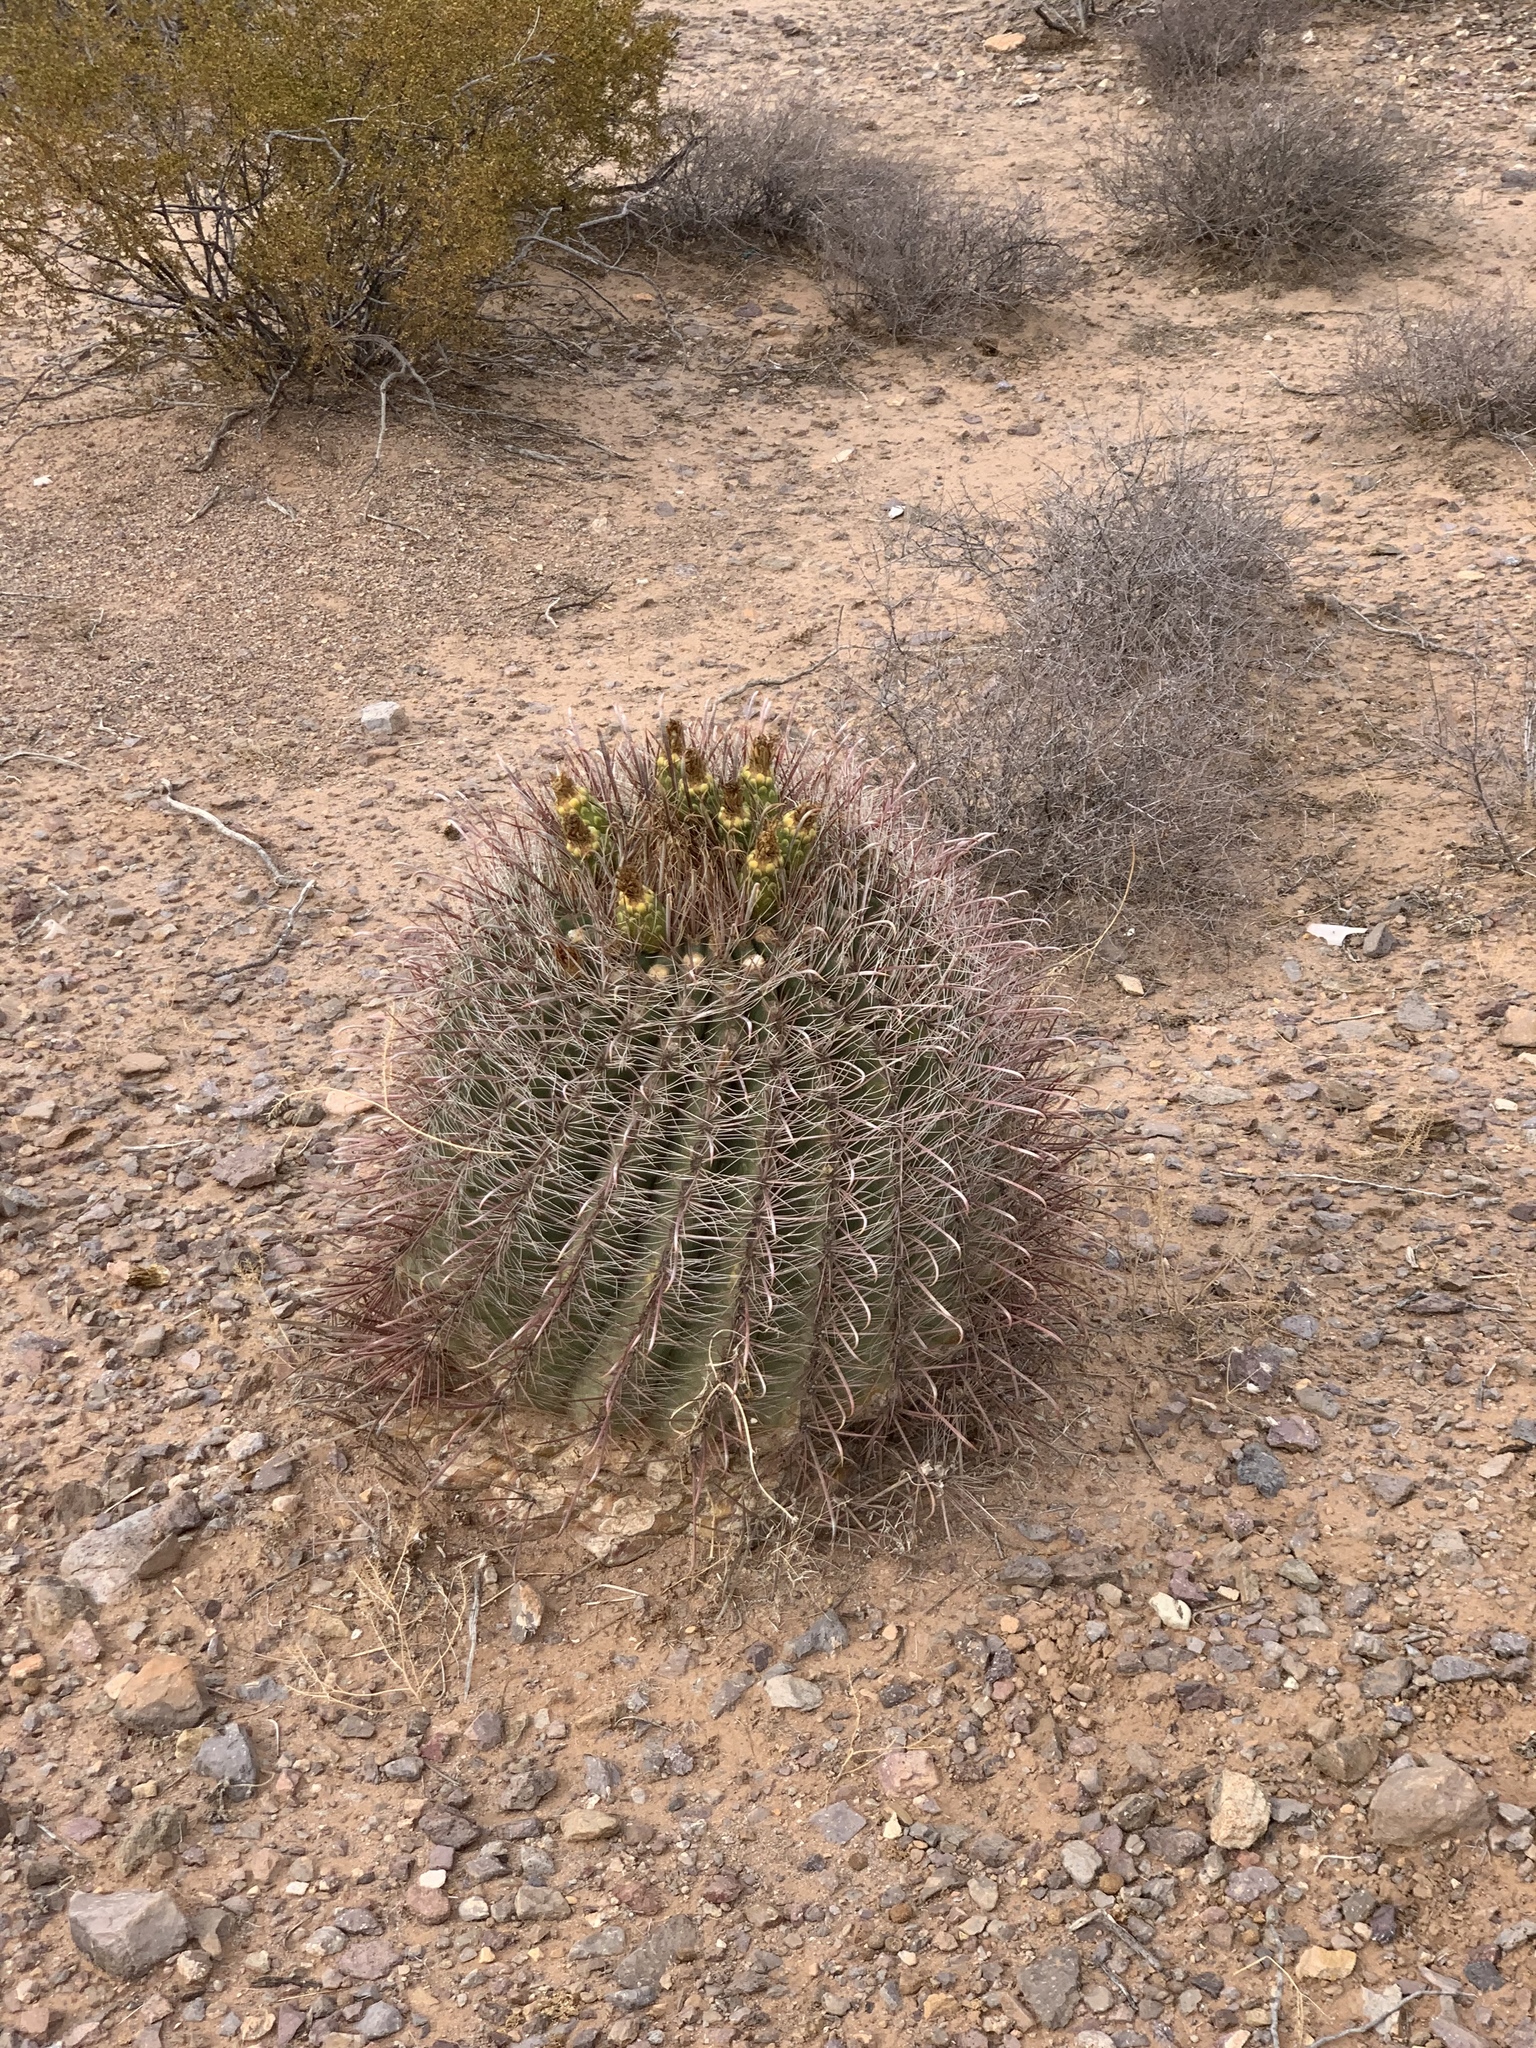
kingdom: Plantae
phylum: Tracheophyta
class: Magnoliopsida
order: Caryophyllales
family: Cactaceae
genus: Ferocactus
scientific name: Ferocactus wislizeni
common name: Candy barrel cactus
